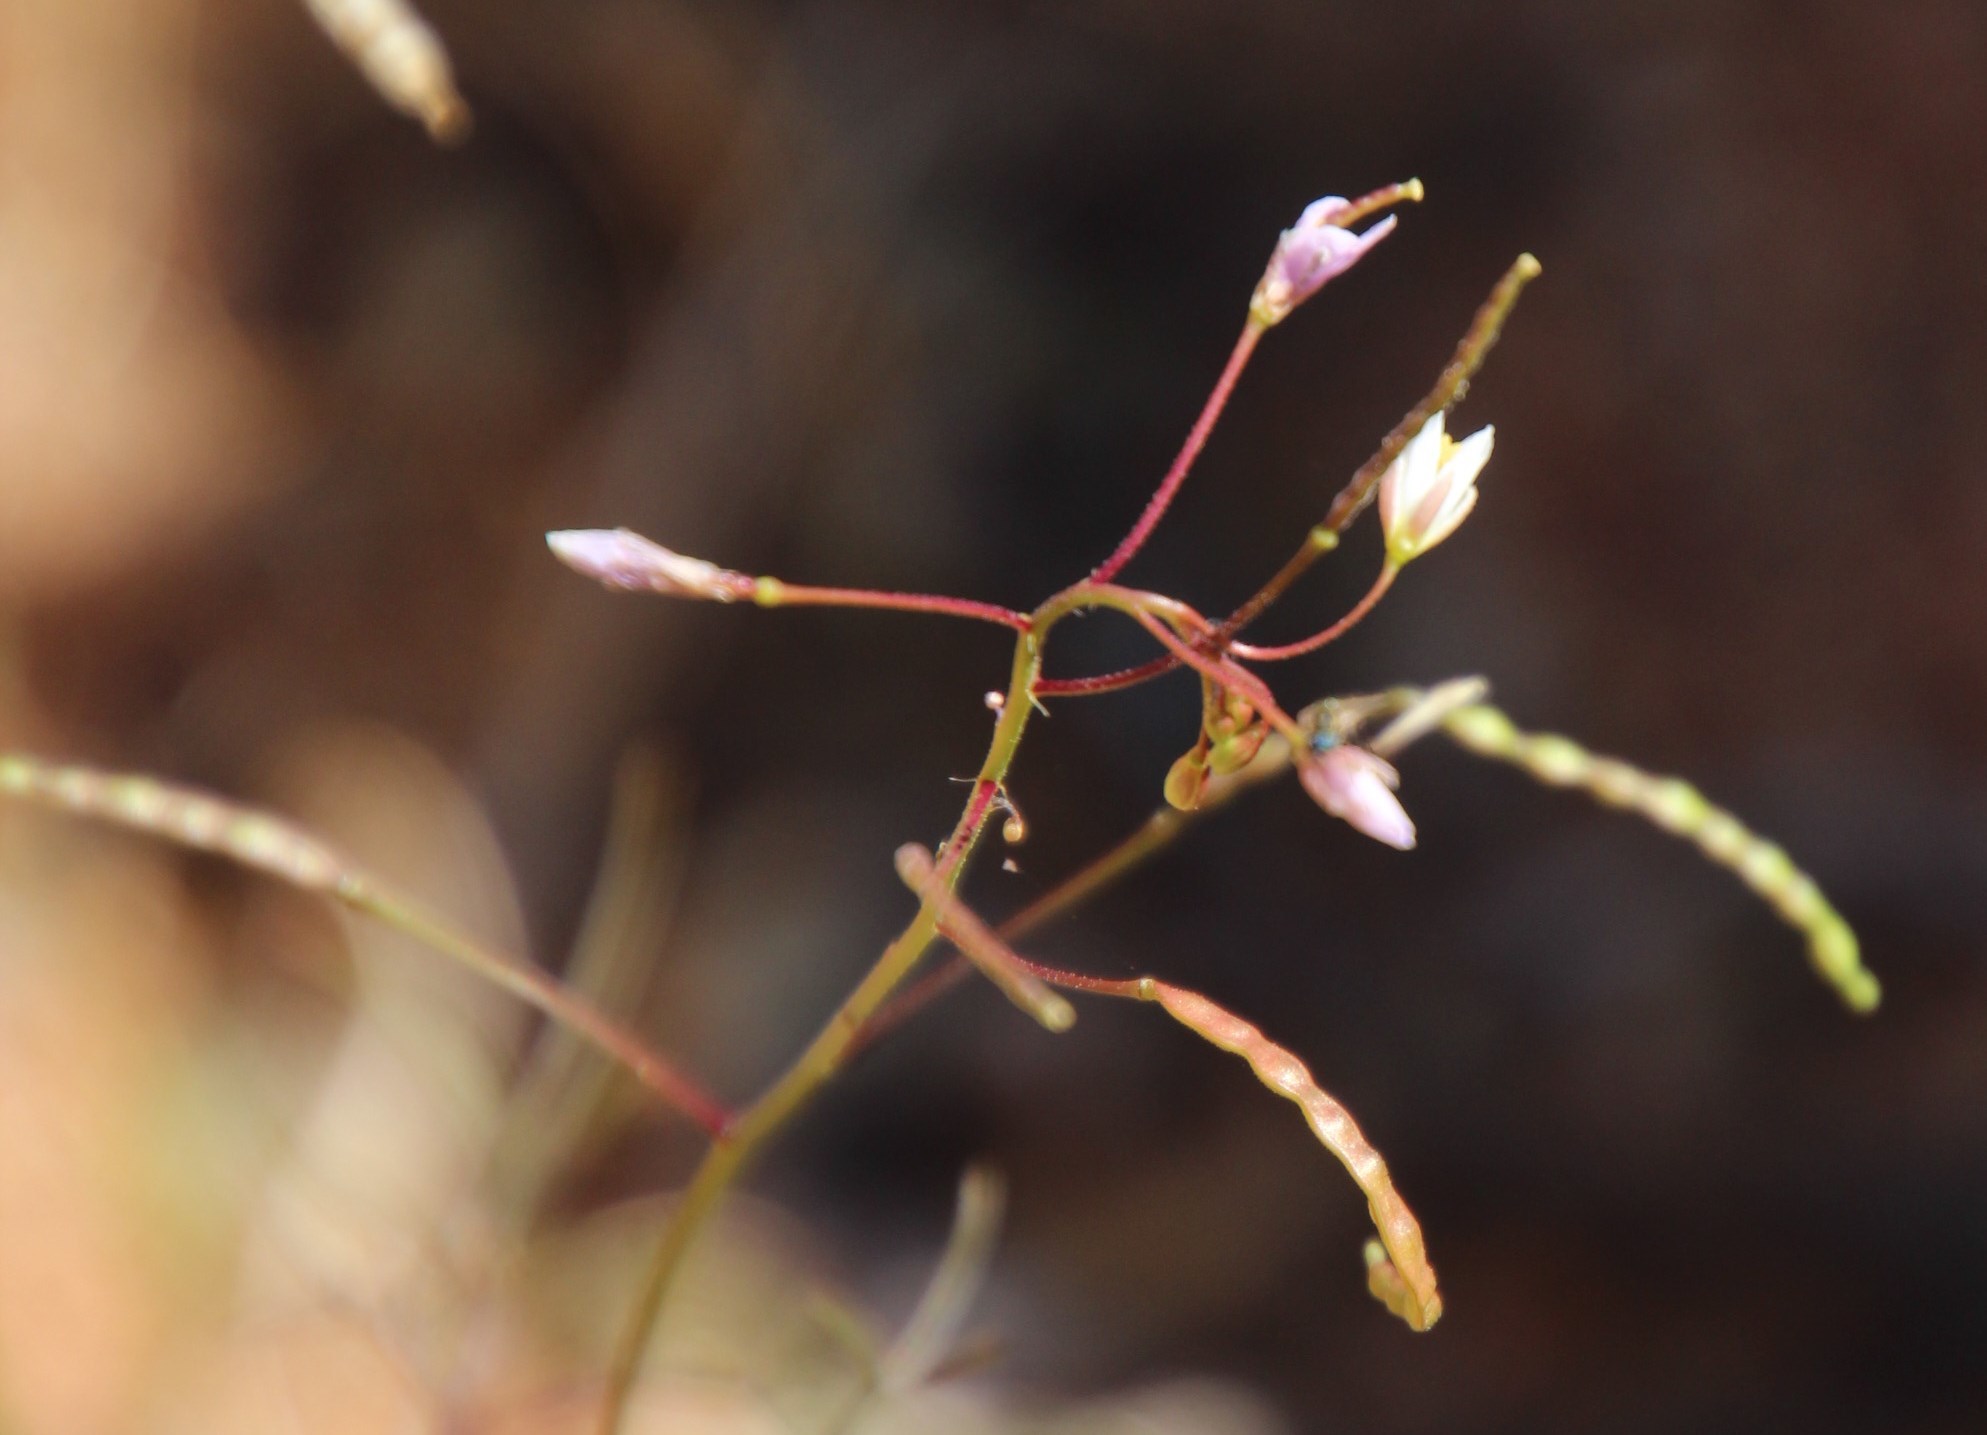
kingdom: Plantae
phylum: Tracheophyta
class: Magnoliopsida
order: Brassicales
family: Brassicaceae
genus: Heliophila
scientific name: Heliophila variabilis
